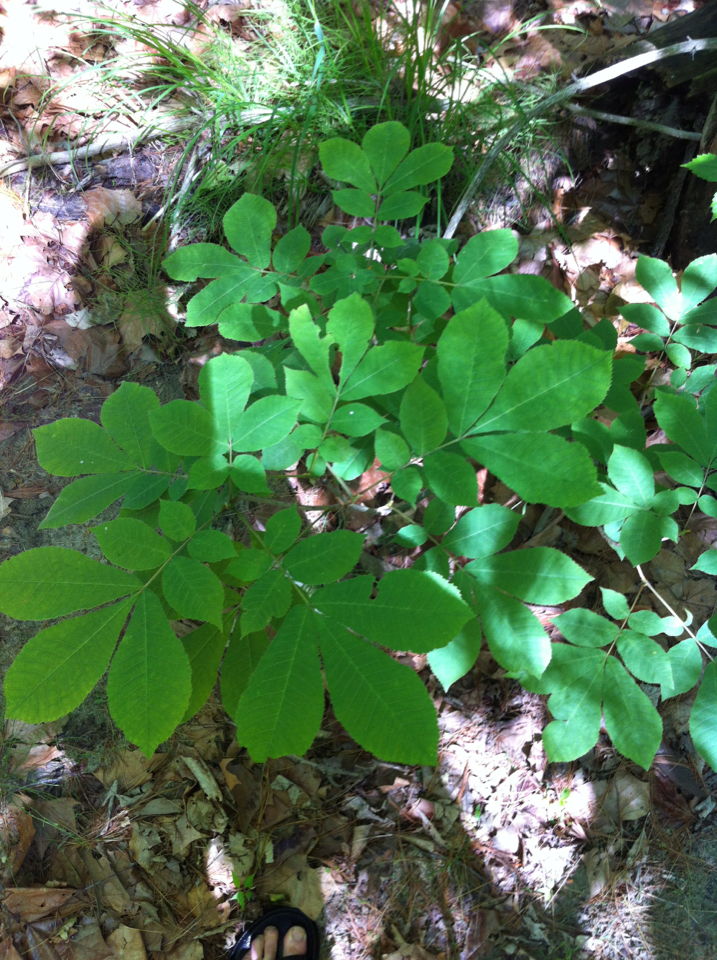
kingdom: Plantae
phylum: Tracheophyta
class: Magnoliopsida
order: Fagales
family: Juglandaceae
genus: Carya
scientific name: Carya cordiformis
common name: Bitternut hickory
